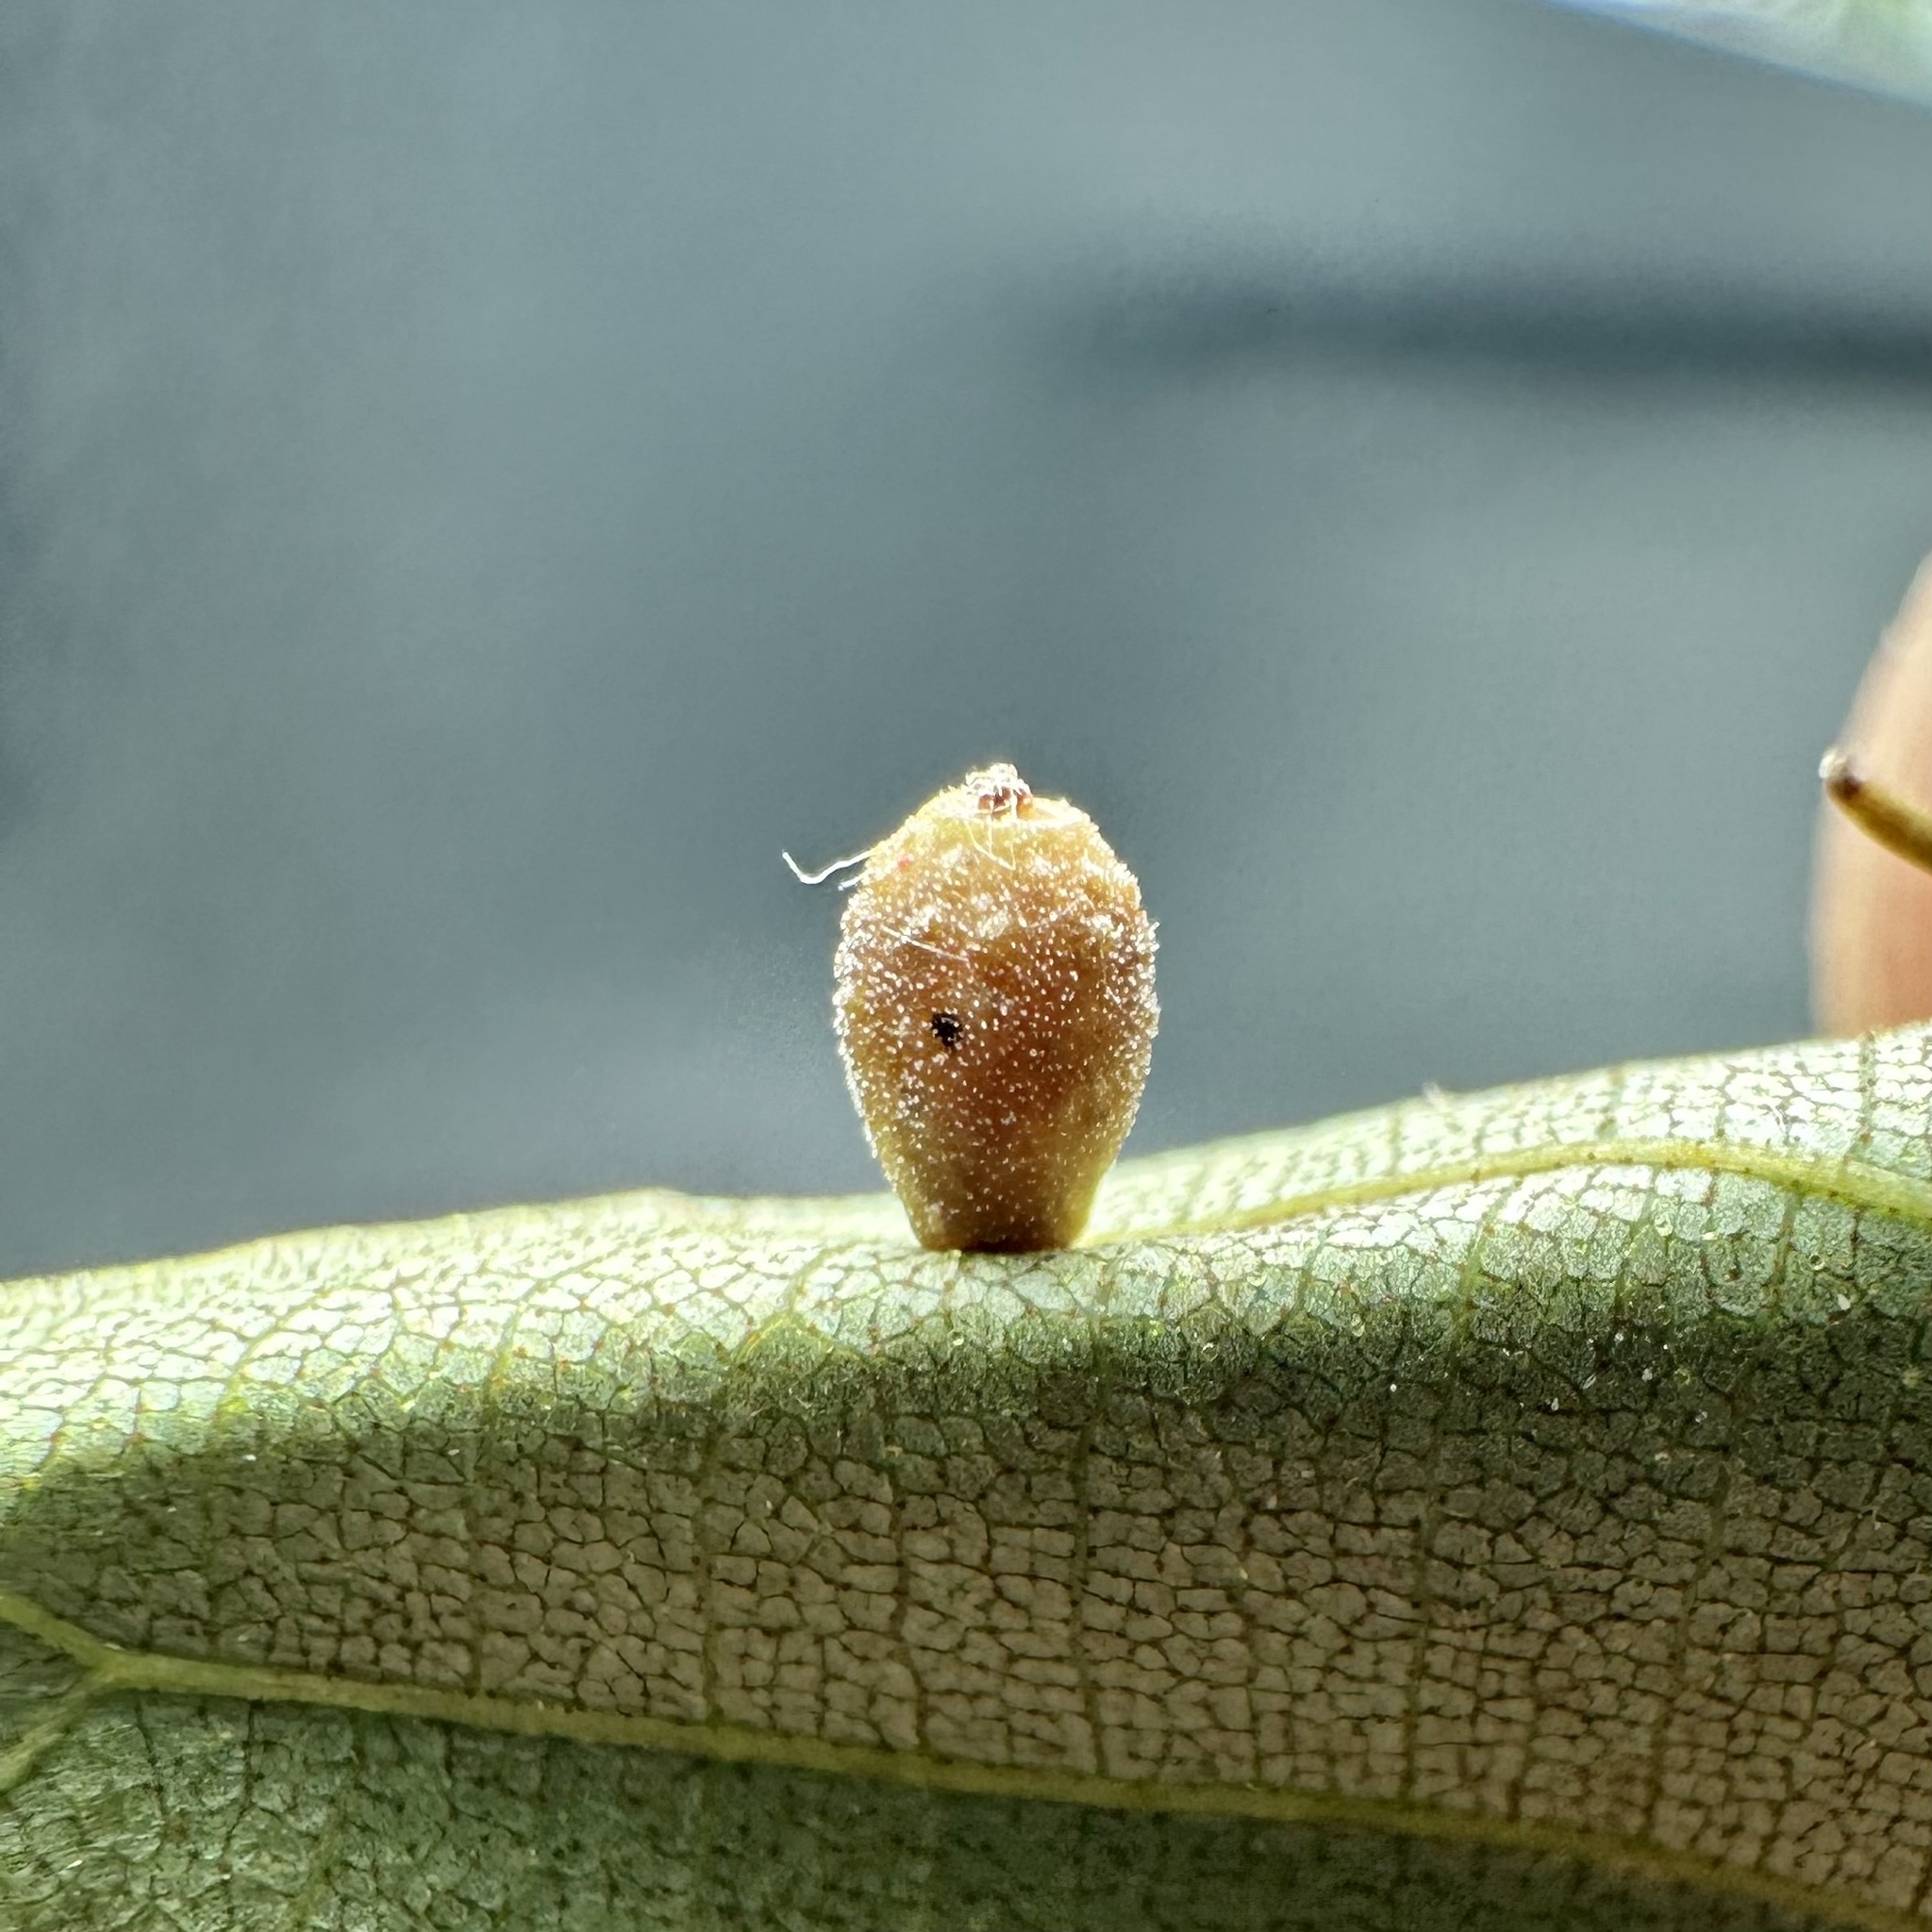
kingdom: Animalia
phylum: Arthropoda
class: Insecta
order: Diptera
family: Cecidomyiidae
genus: Caryomyia
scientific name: Caryomyia tuberidolium
